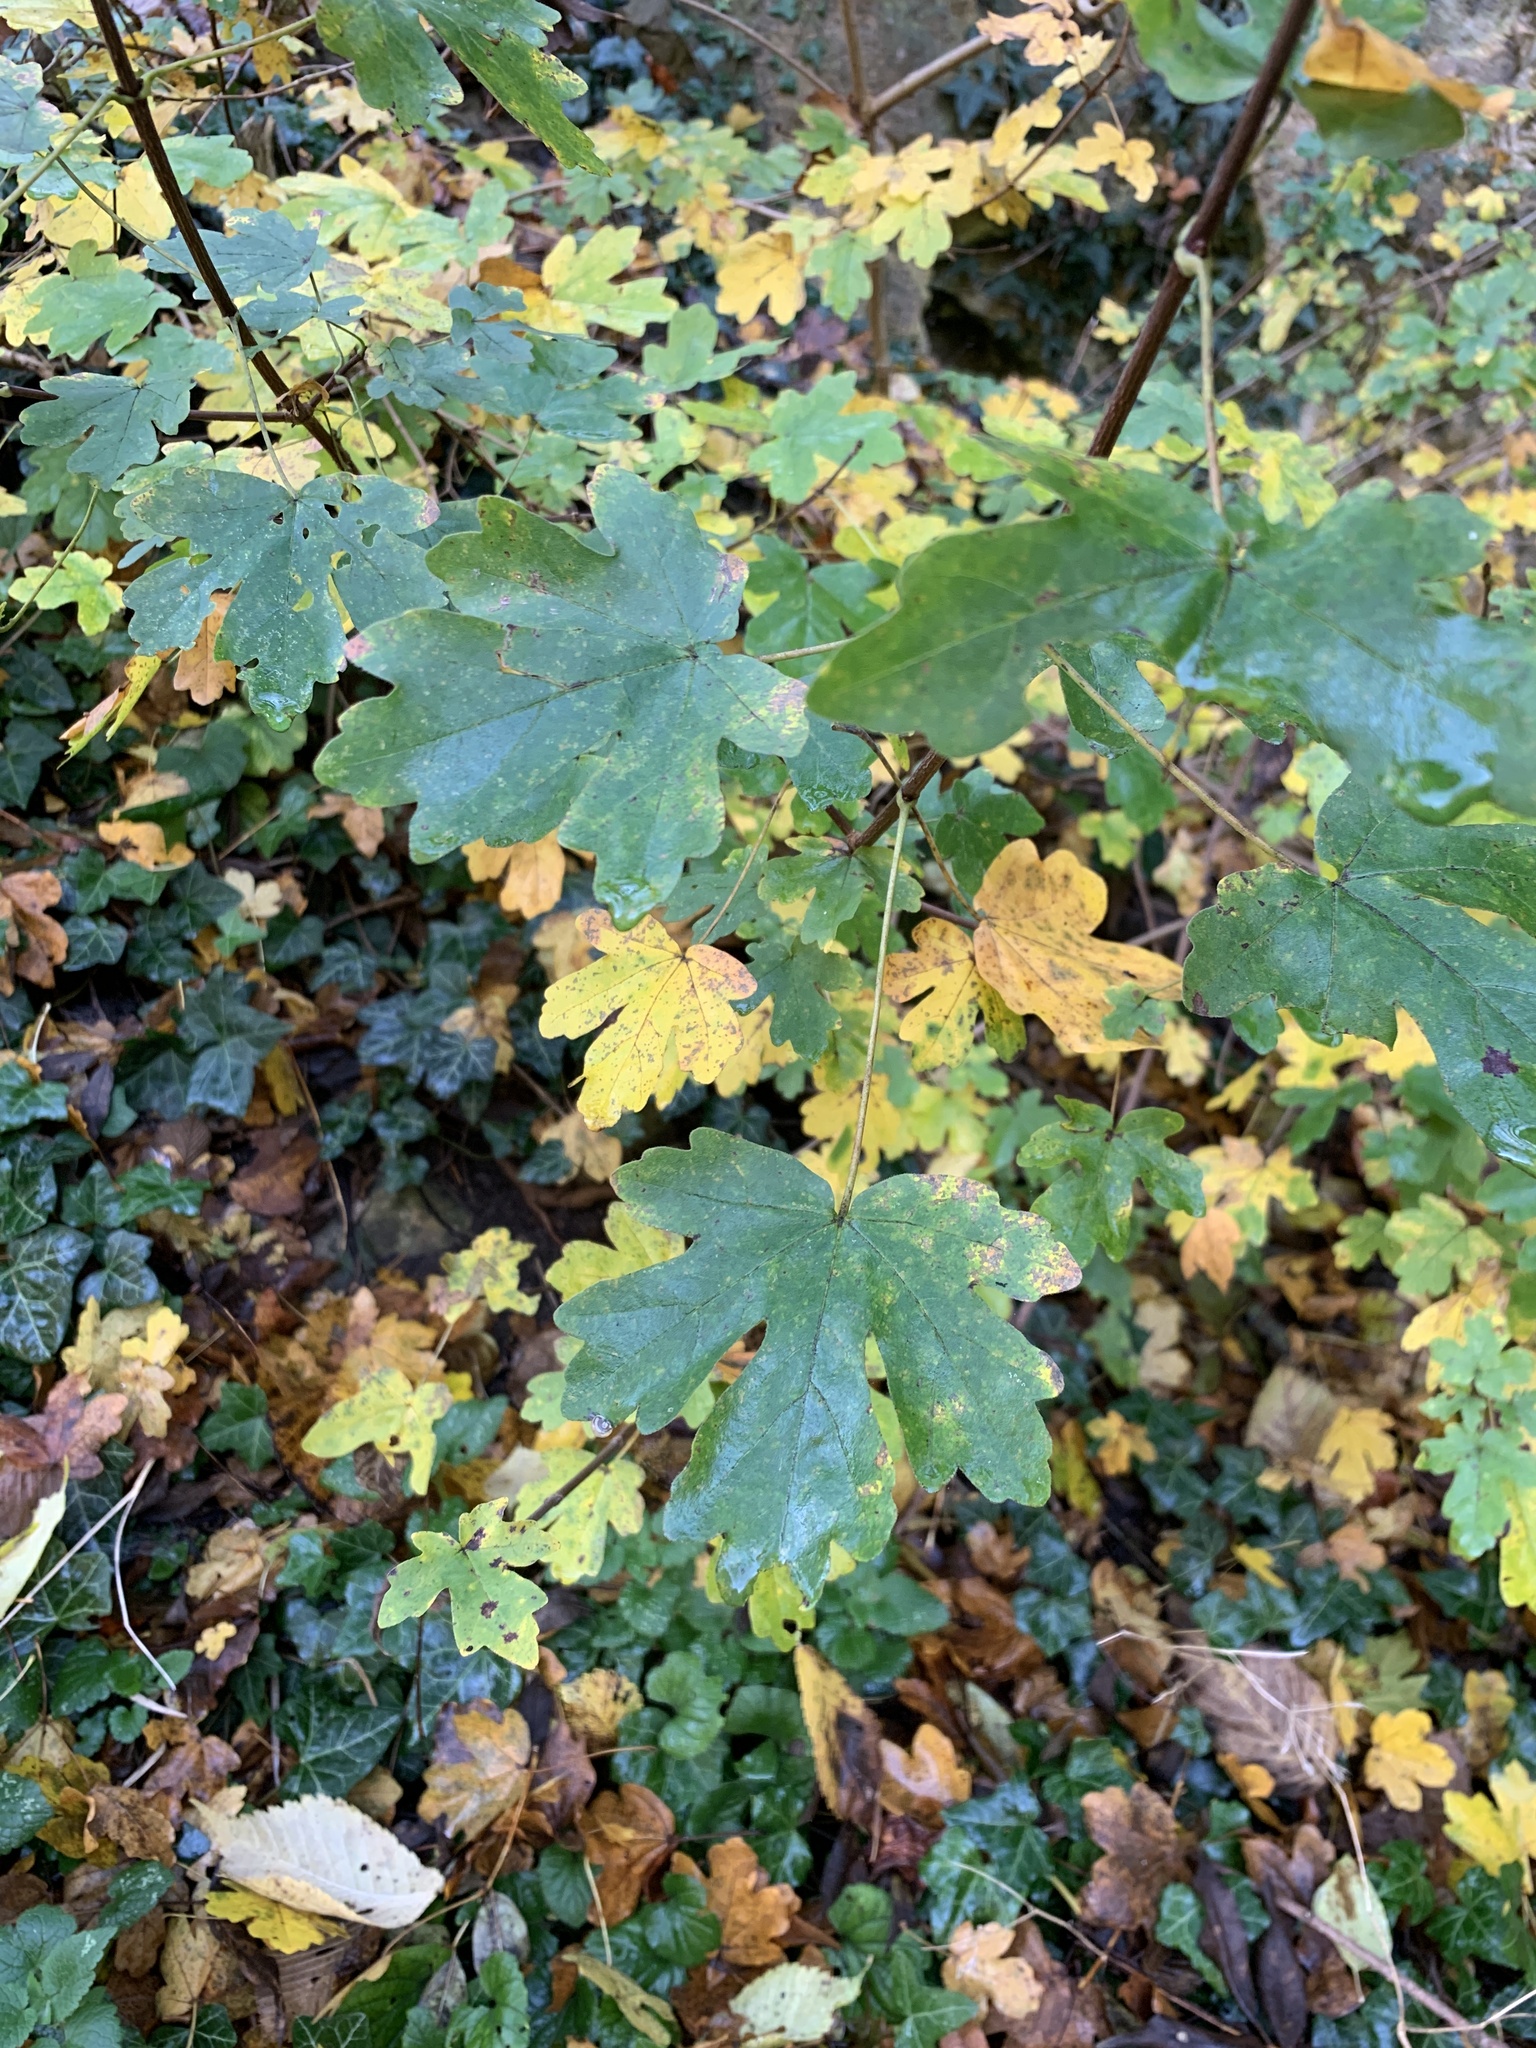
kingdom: Plantae
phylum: Tracheophyta
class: Magnoliopsida
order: Sapindales
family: Sapindaceae
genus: Acer
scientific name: Acer campestre
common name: Field maple
